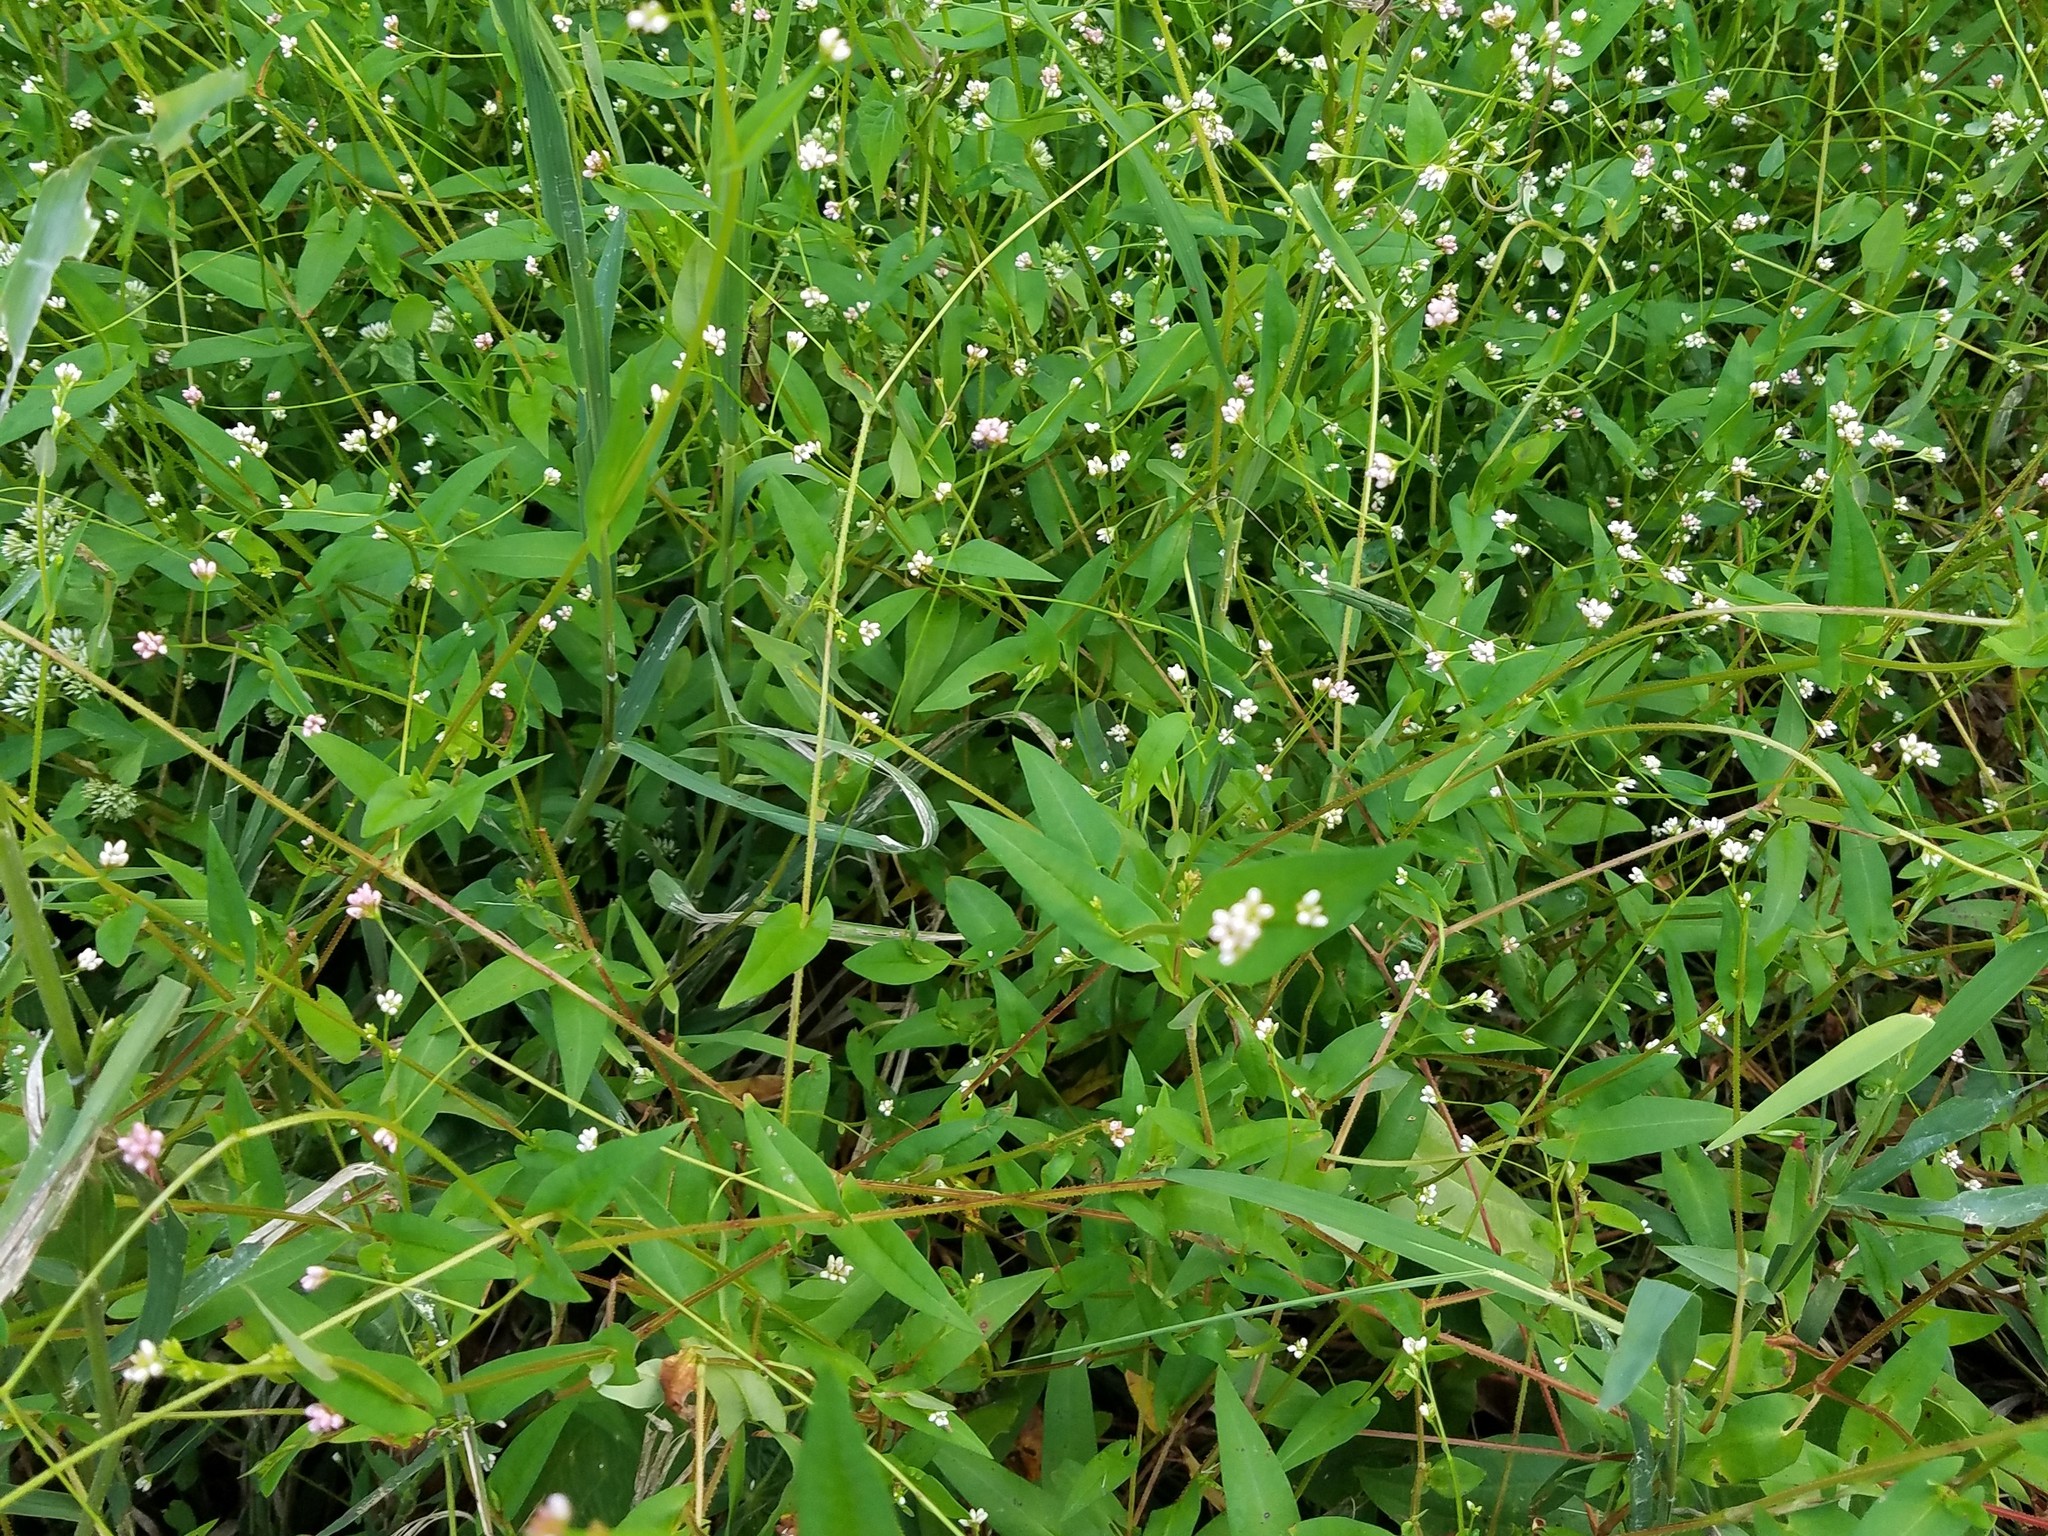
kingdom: Plantae
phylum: Tracheophyta
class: Magnoliopsida
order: Caryophyllales
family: Polygonaceae
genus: Persicaria
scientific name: Persicaria sagittata
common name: American tearthumb
